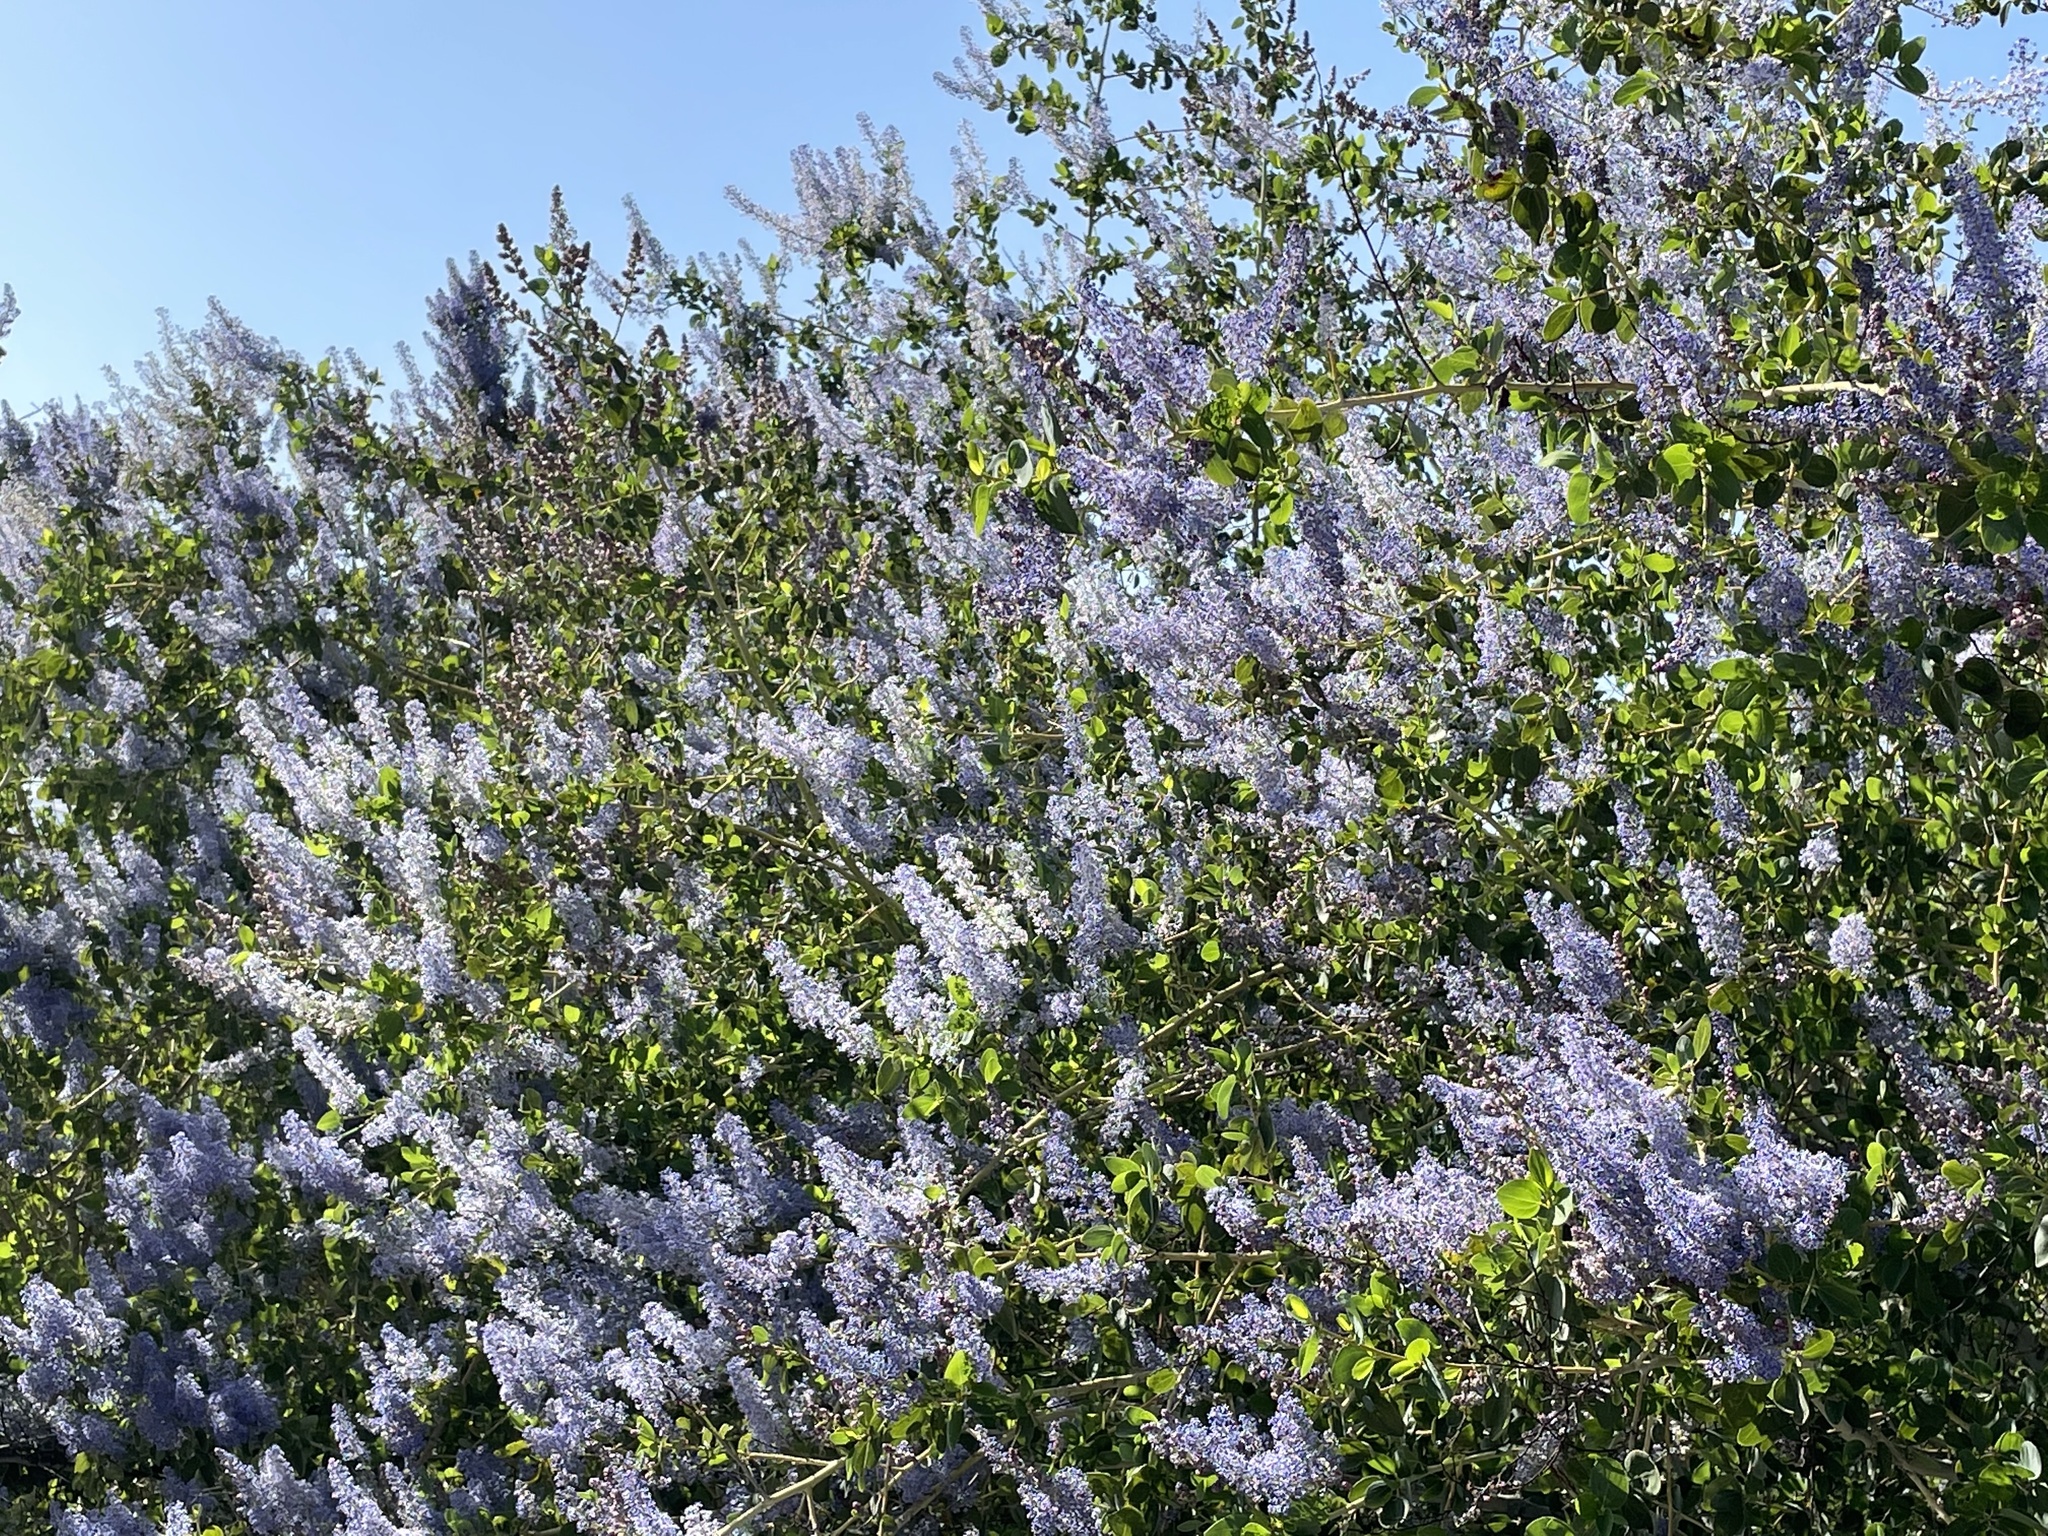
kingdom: Plantae
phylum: Tracheophyta
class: Magnoliopsida
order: Rosales
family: Rhamnaceae
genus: Ceanothus
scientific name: Ceanothus leucodermis
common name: Chaparral whitethorn
